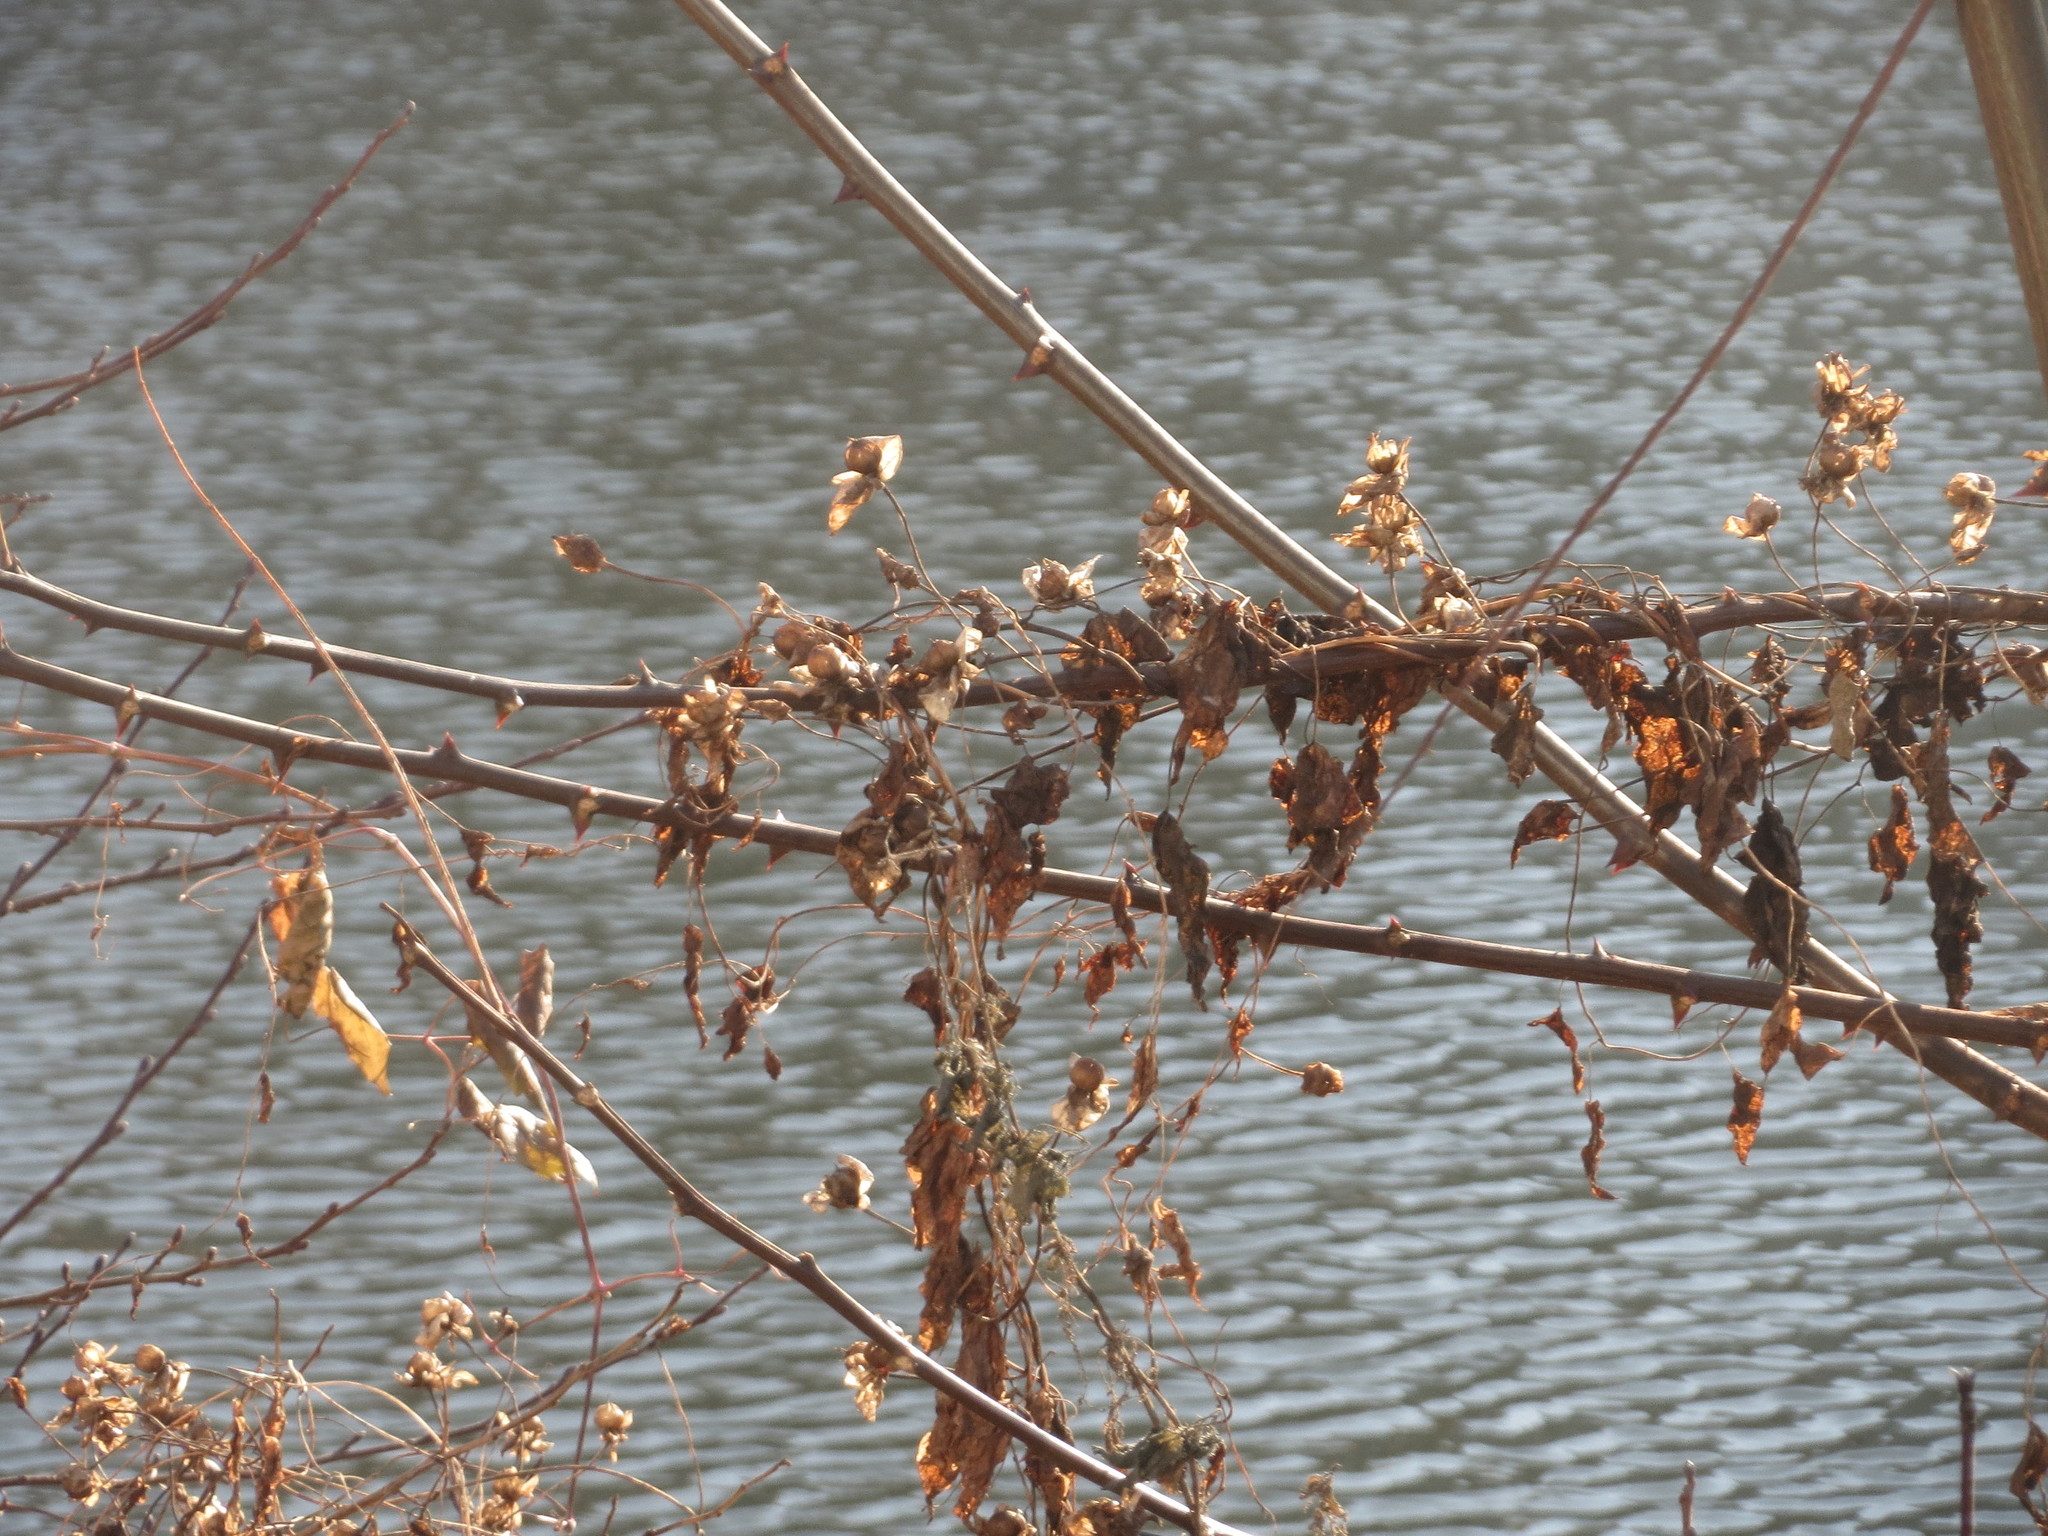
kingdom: Plantae
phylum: Tracheophyta
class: Magnoliopsida
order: Solanales
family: Convolvulaceae
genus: Calystegia
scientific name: Calystegia sepium
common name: Hedge bindweed
